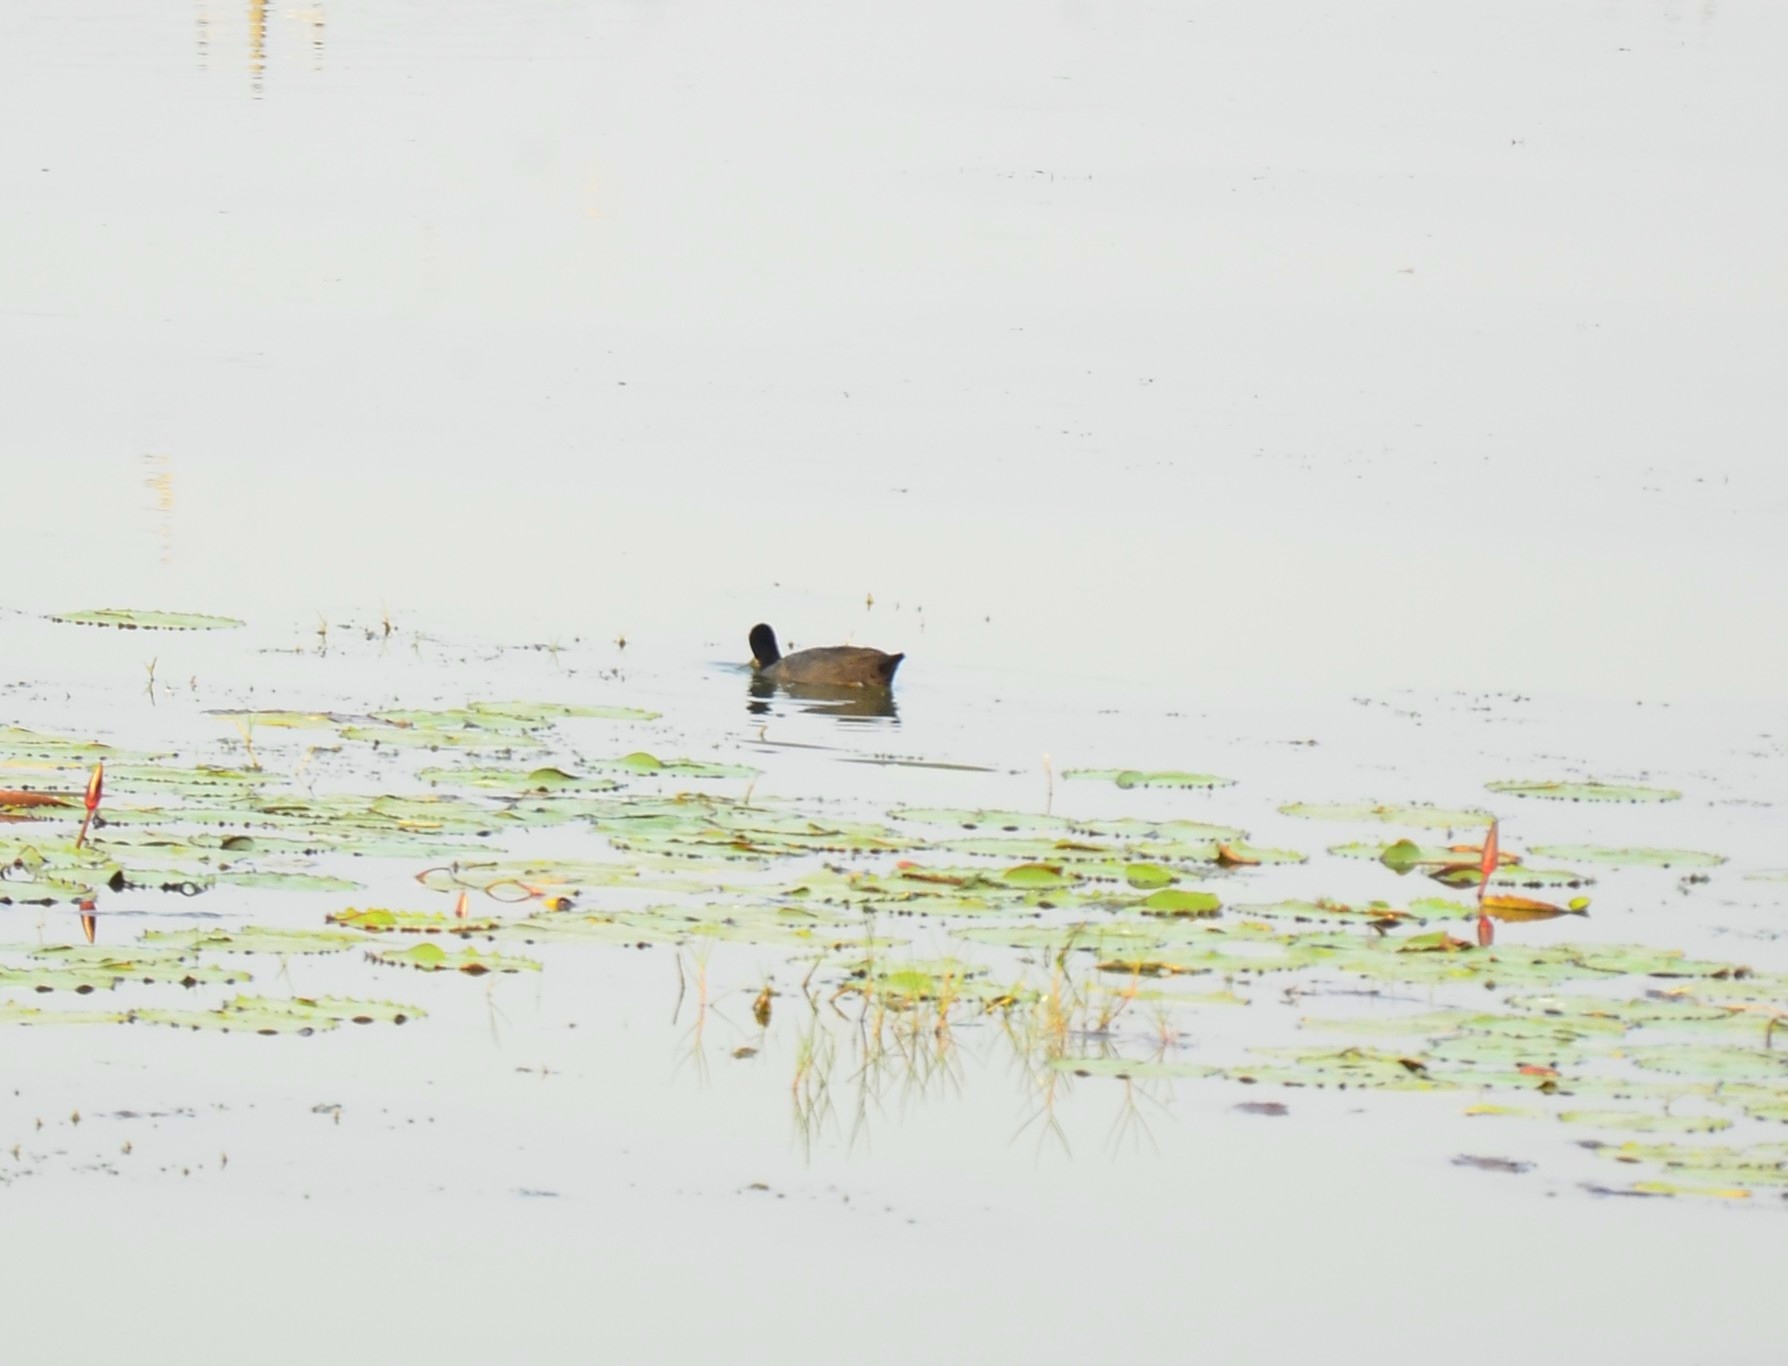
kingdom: Animalia
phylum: Chordata
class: Aves
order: Gruiformes
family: Rallidae
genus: Fulica
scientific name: Fulica atra
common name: Eurasian coot
